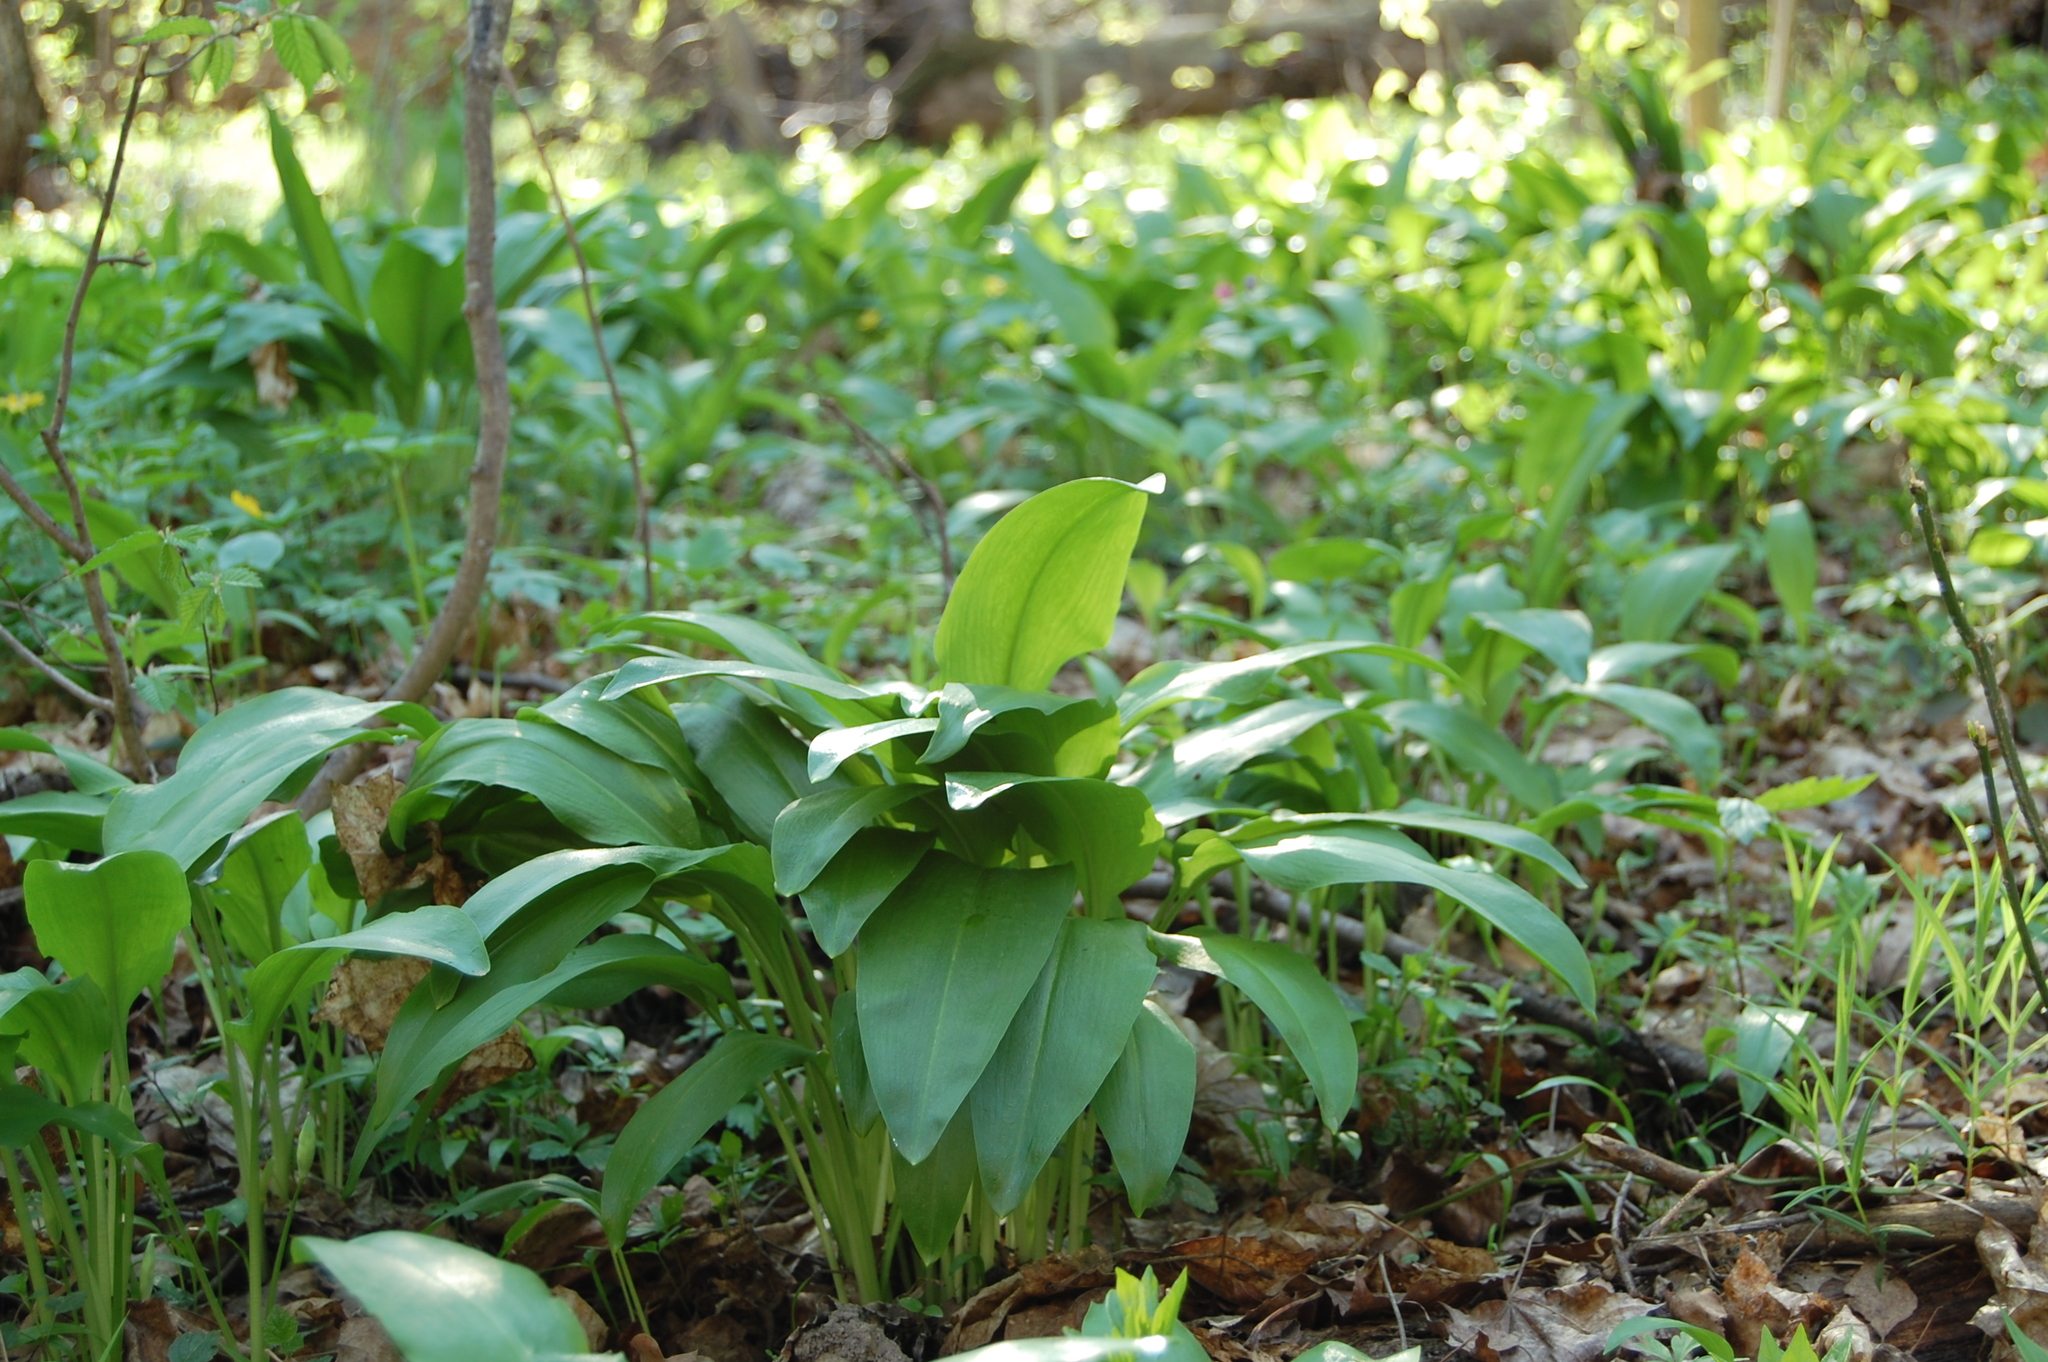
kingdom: Plantae
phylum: Tracheophyta
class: Liliopsida
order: Asparagales
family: Amaryllidaceae
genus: Allium
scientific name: Allium ursinum
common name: Ramsons
